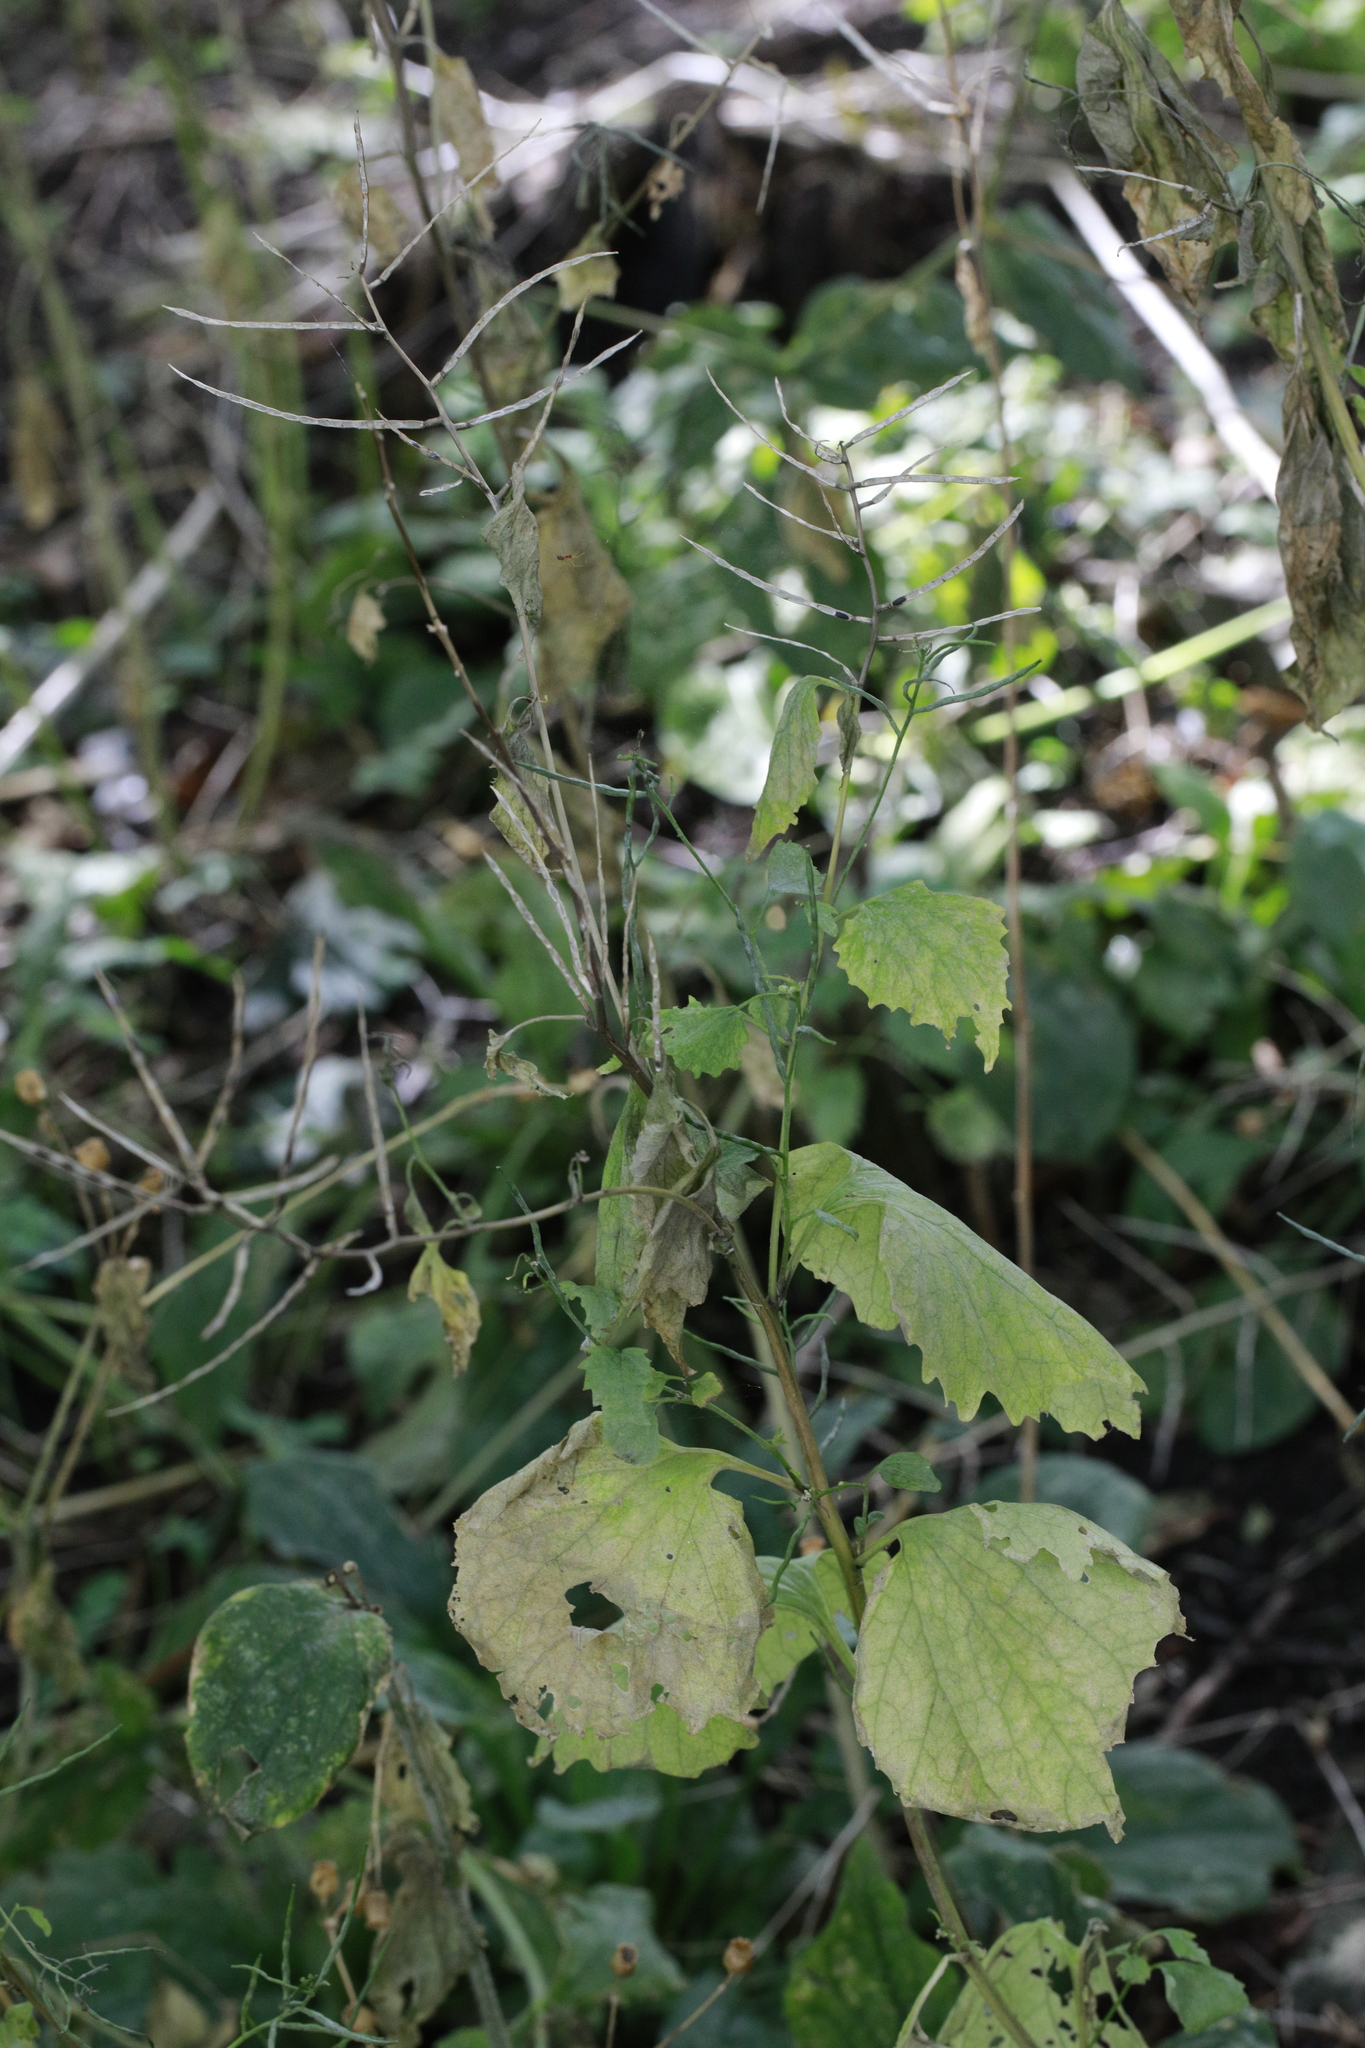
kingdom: Plantae
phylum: Tracheophyta
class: Magnoliopsida
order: Brassicales
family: Brassicaceae
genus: Alliaria
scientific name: Alliaria petiolata
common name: Garlic mustard
